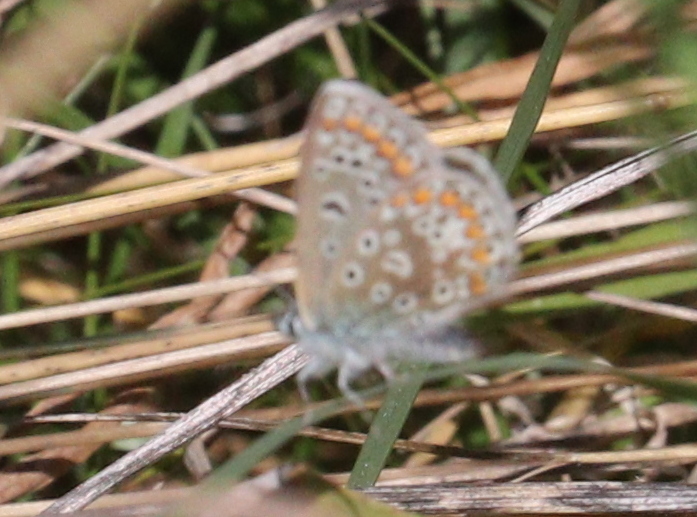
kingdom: Animalia
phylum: Arthropoda
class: Insecta
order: Lepidoptera
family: Lycaenidae
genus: Polyommatus
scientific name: Polyommatus icarus
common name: Common blue
